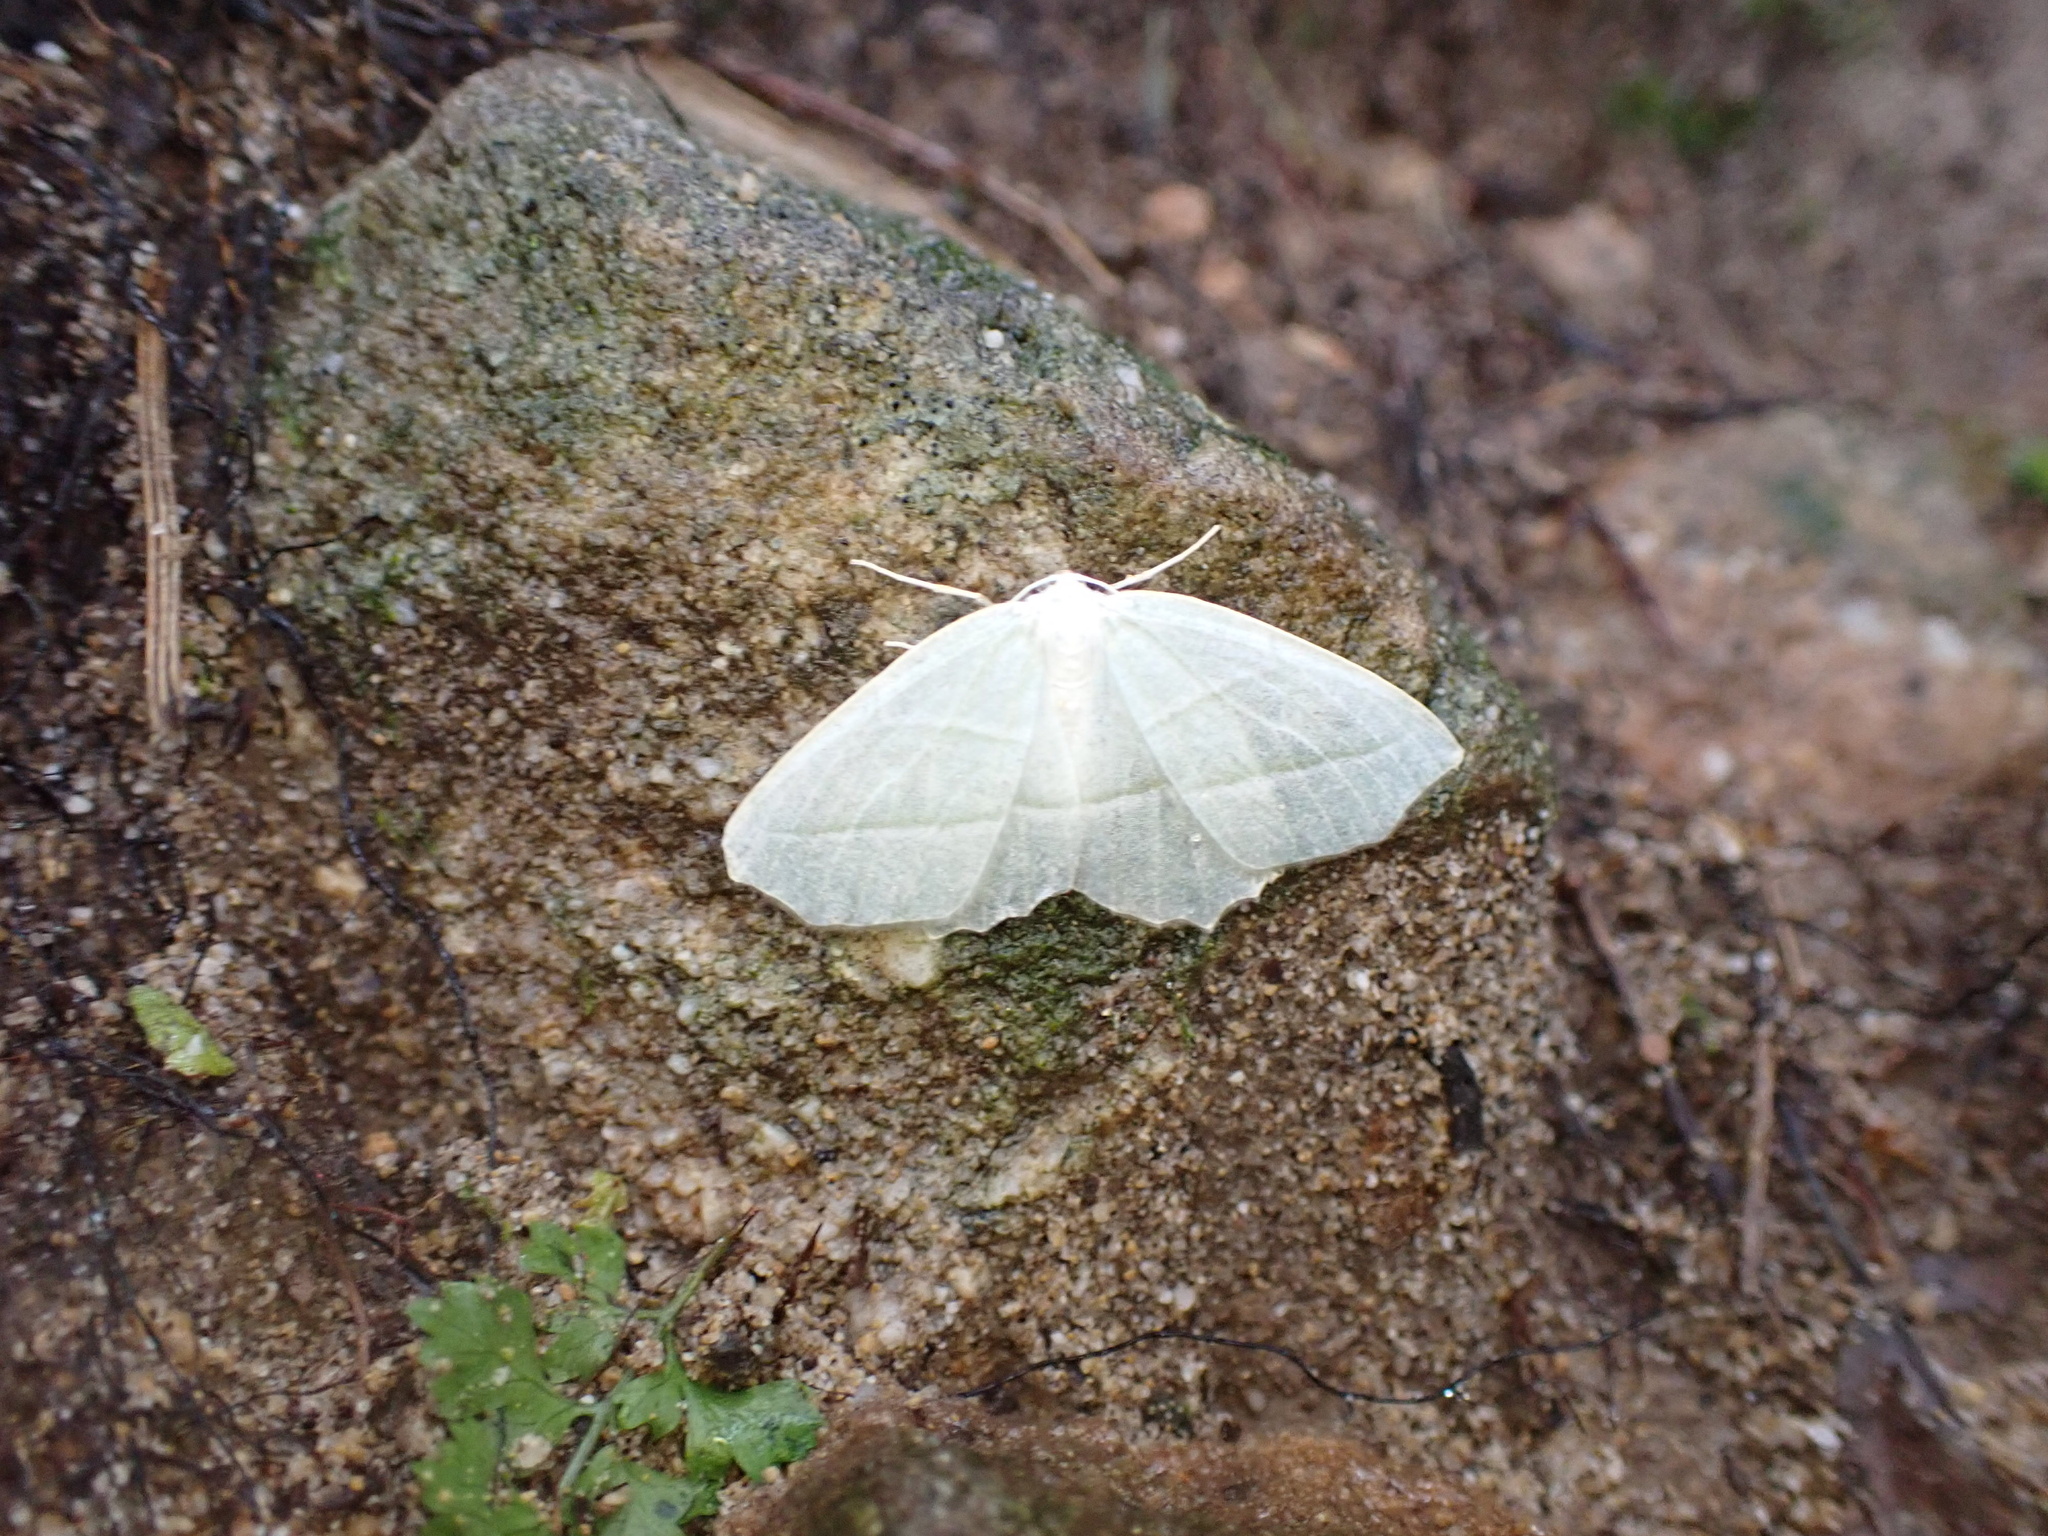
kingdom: Animalia
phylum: Arthropoda
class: Insecta
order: Lepidoptera
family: Geometridae
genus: Campaea
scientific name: Campaea perlata
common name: Fringed looper
